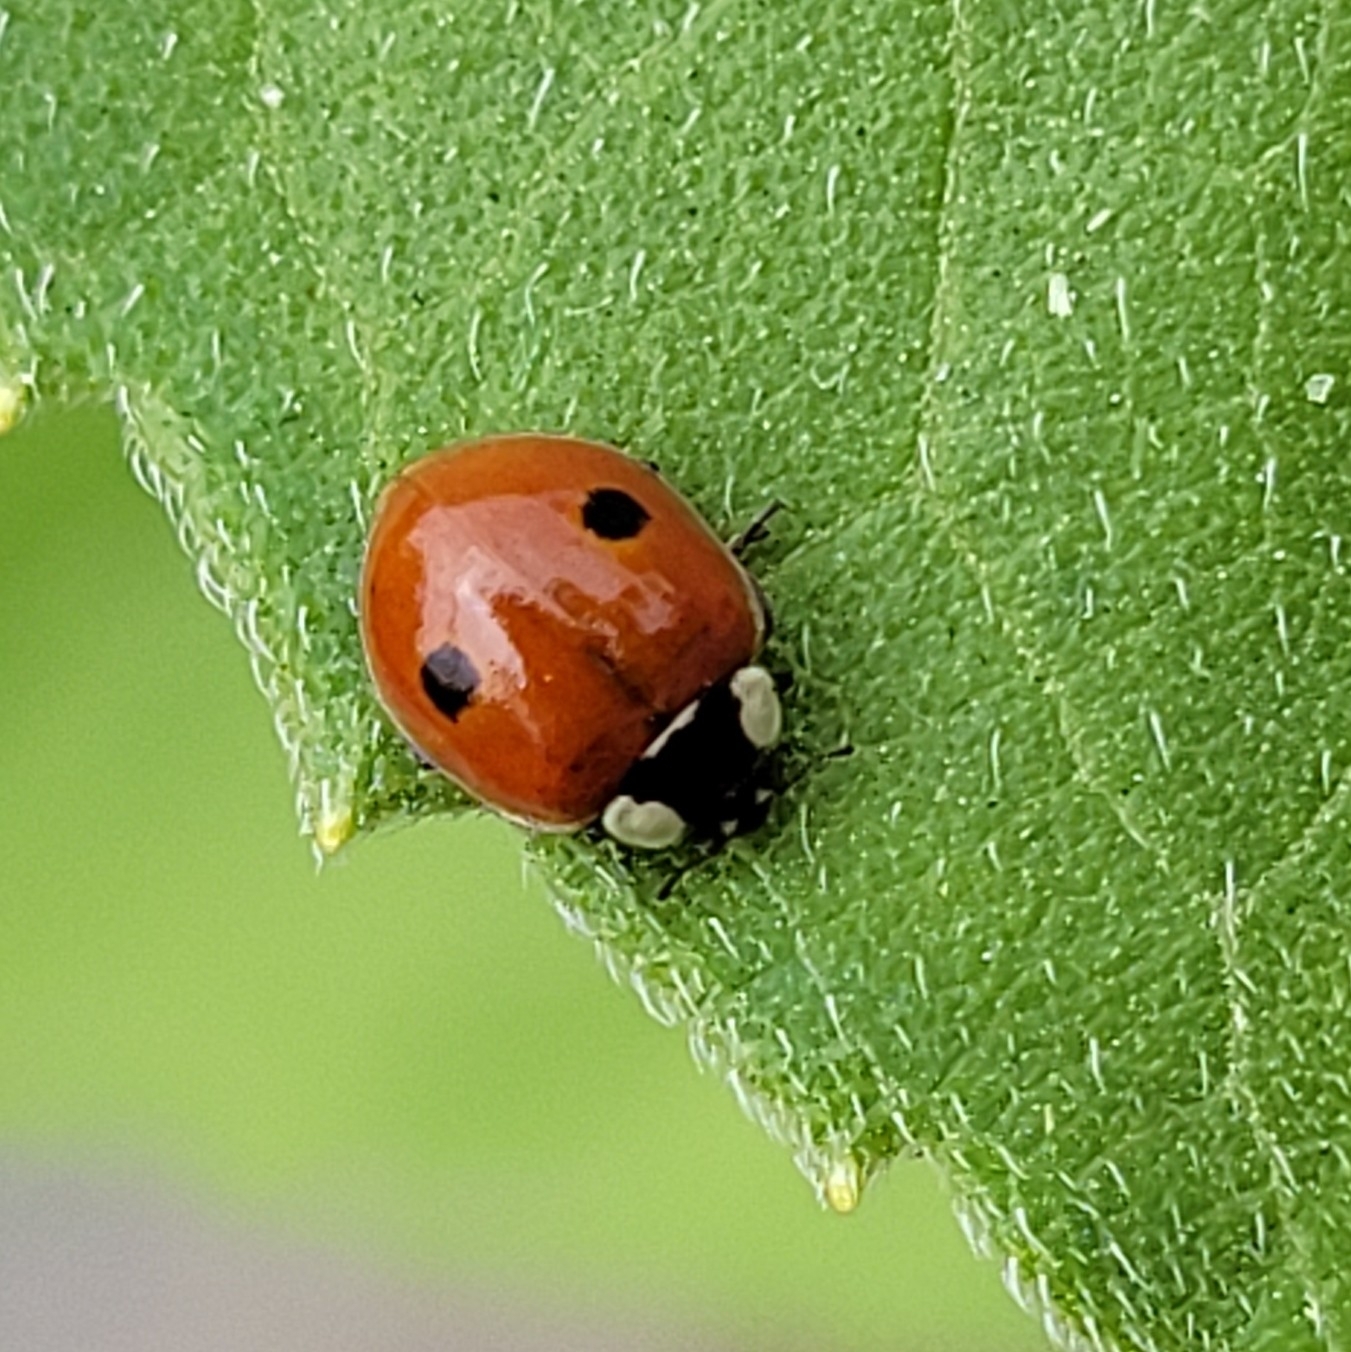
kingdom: Animalia
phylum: Arthropoda
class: Insecta
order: Coleoptera
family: Coccinellidae
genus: Adalia
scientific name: Adalia bipunctata
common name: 2-spot ladybird
